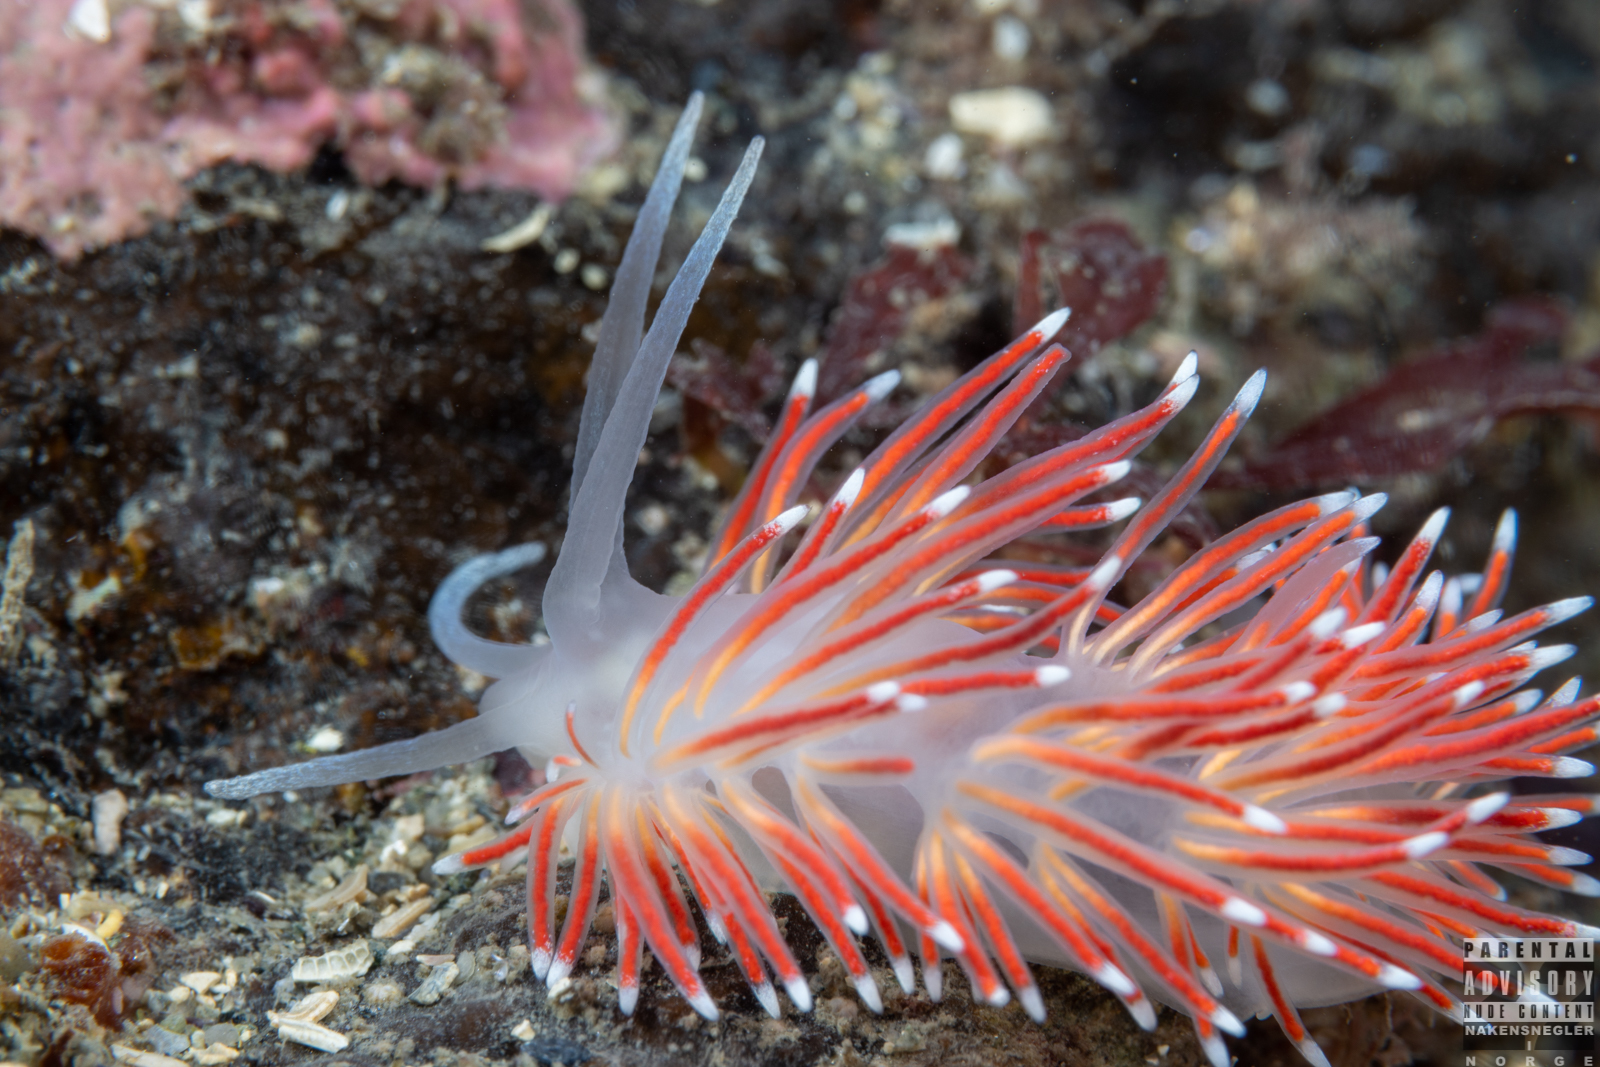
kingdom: Animalia
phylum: Mollusca
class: Gastropoda
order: Nudibranchia
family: Flabellinidae
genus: Carronella
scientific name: Carronella pellucida
